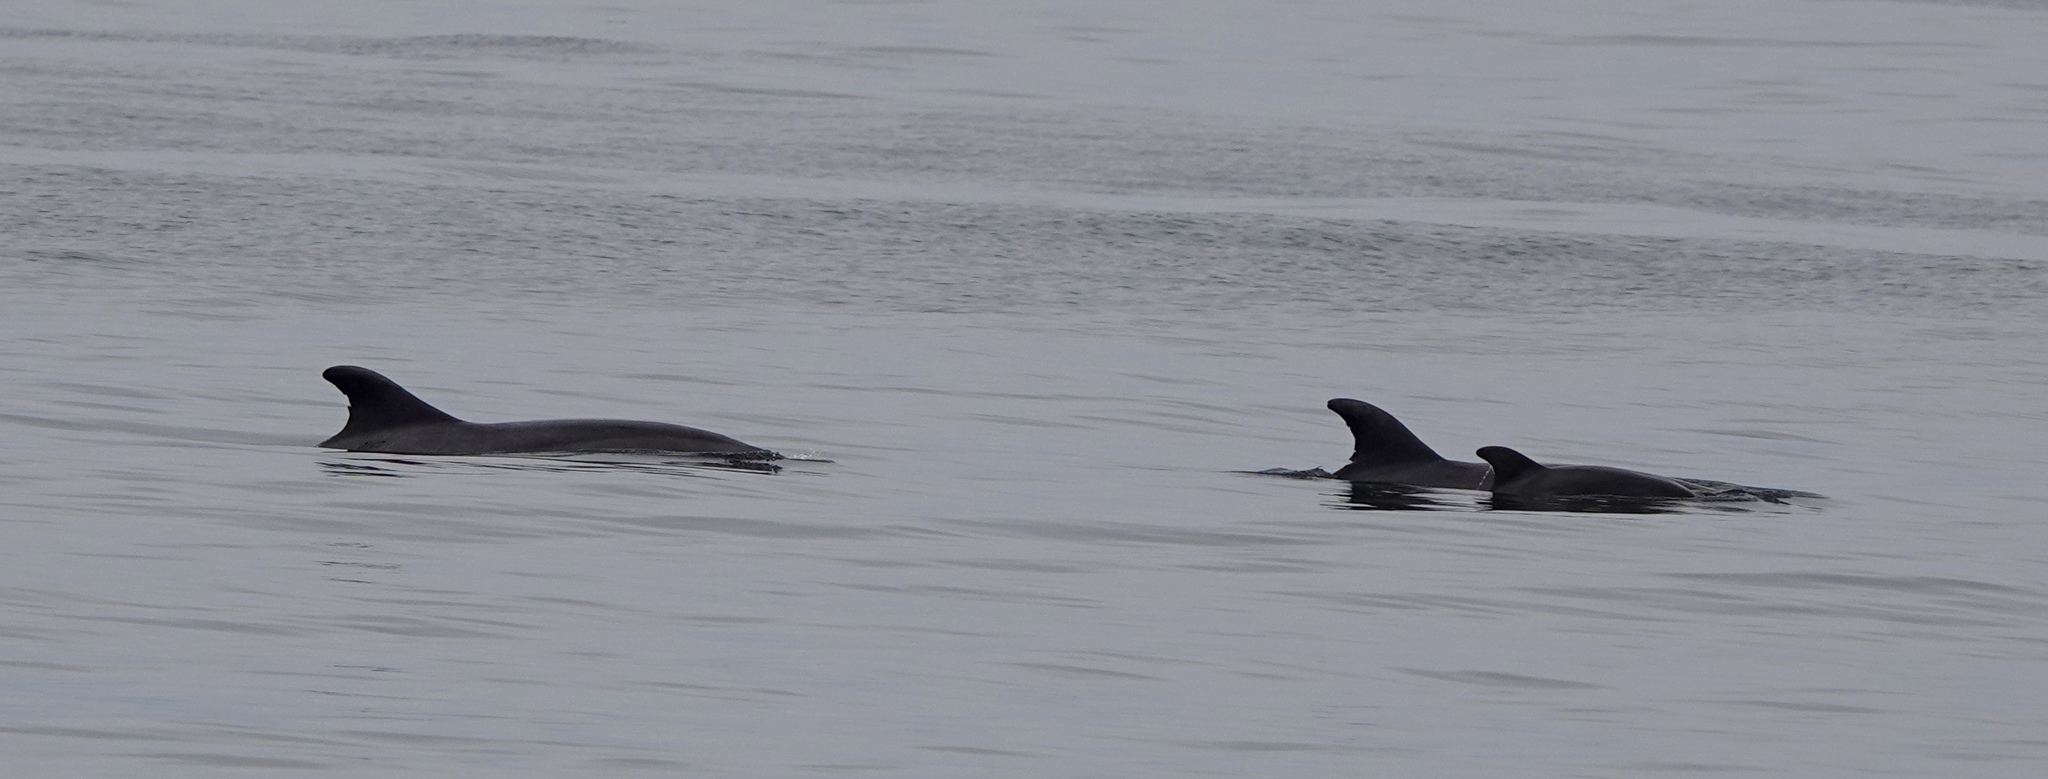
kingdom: Animalia
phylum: Chordata
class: Mammalia
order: Cetacea
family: Delphinidae
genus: Tursiops
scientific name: Tursiops truncatus
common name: Bottlenose dolphin
